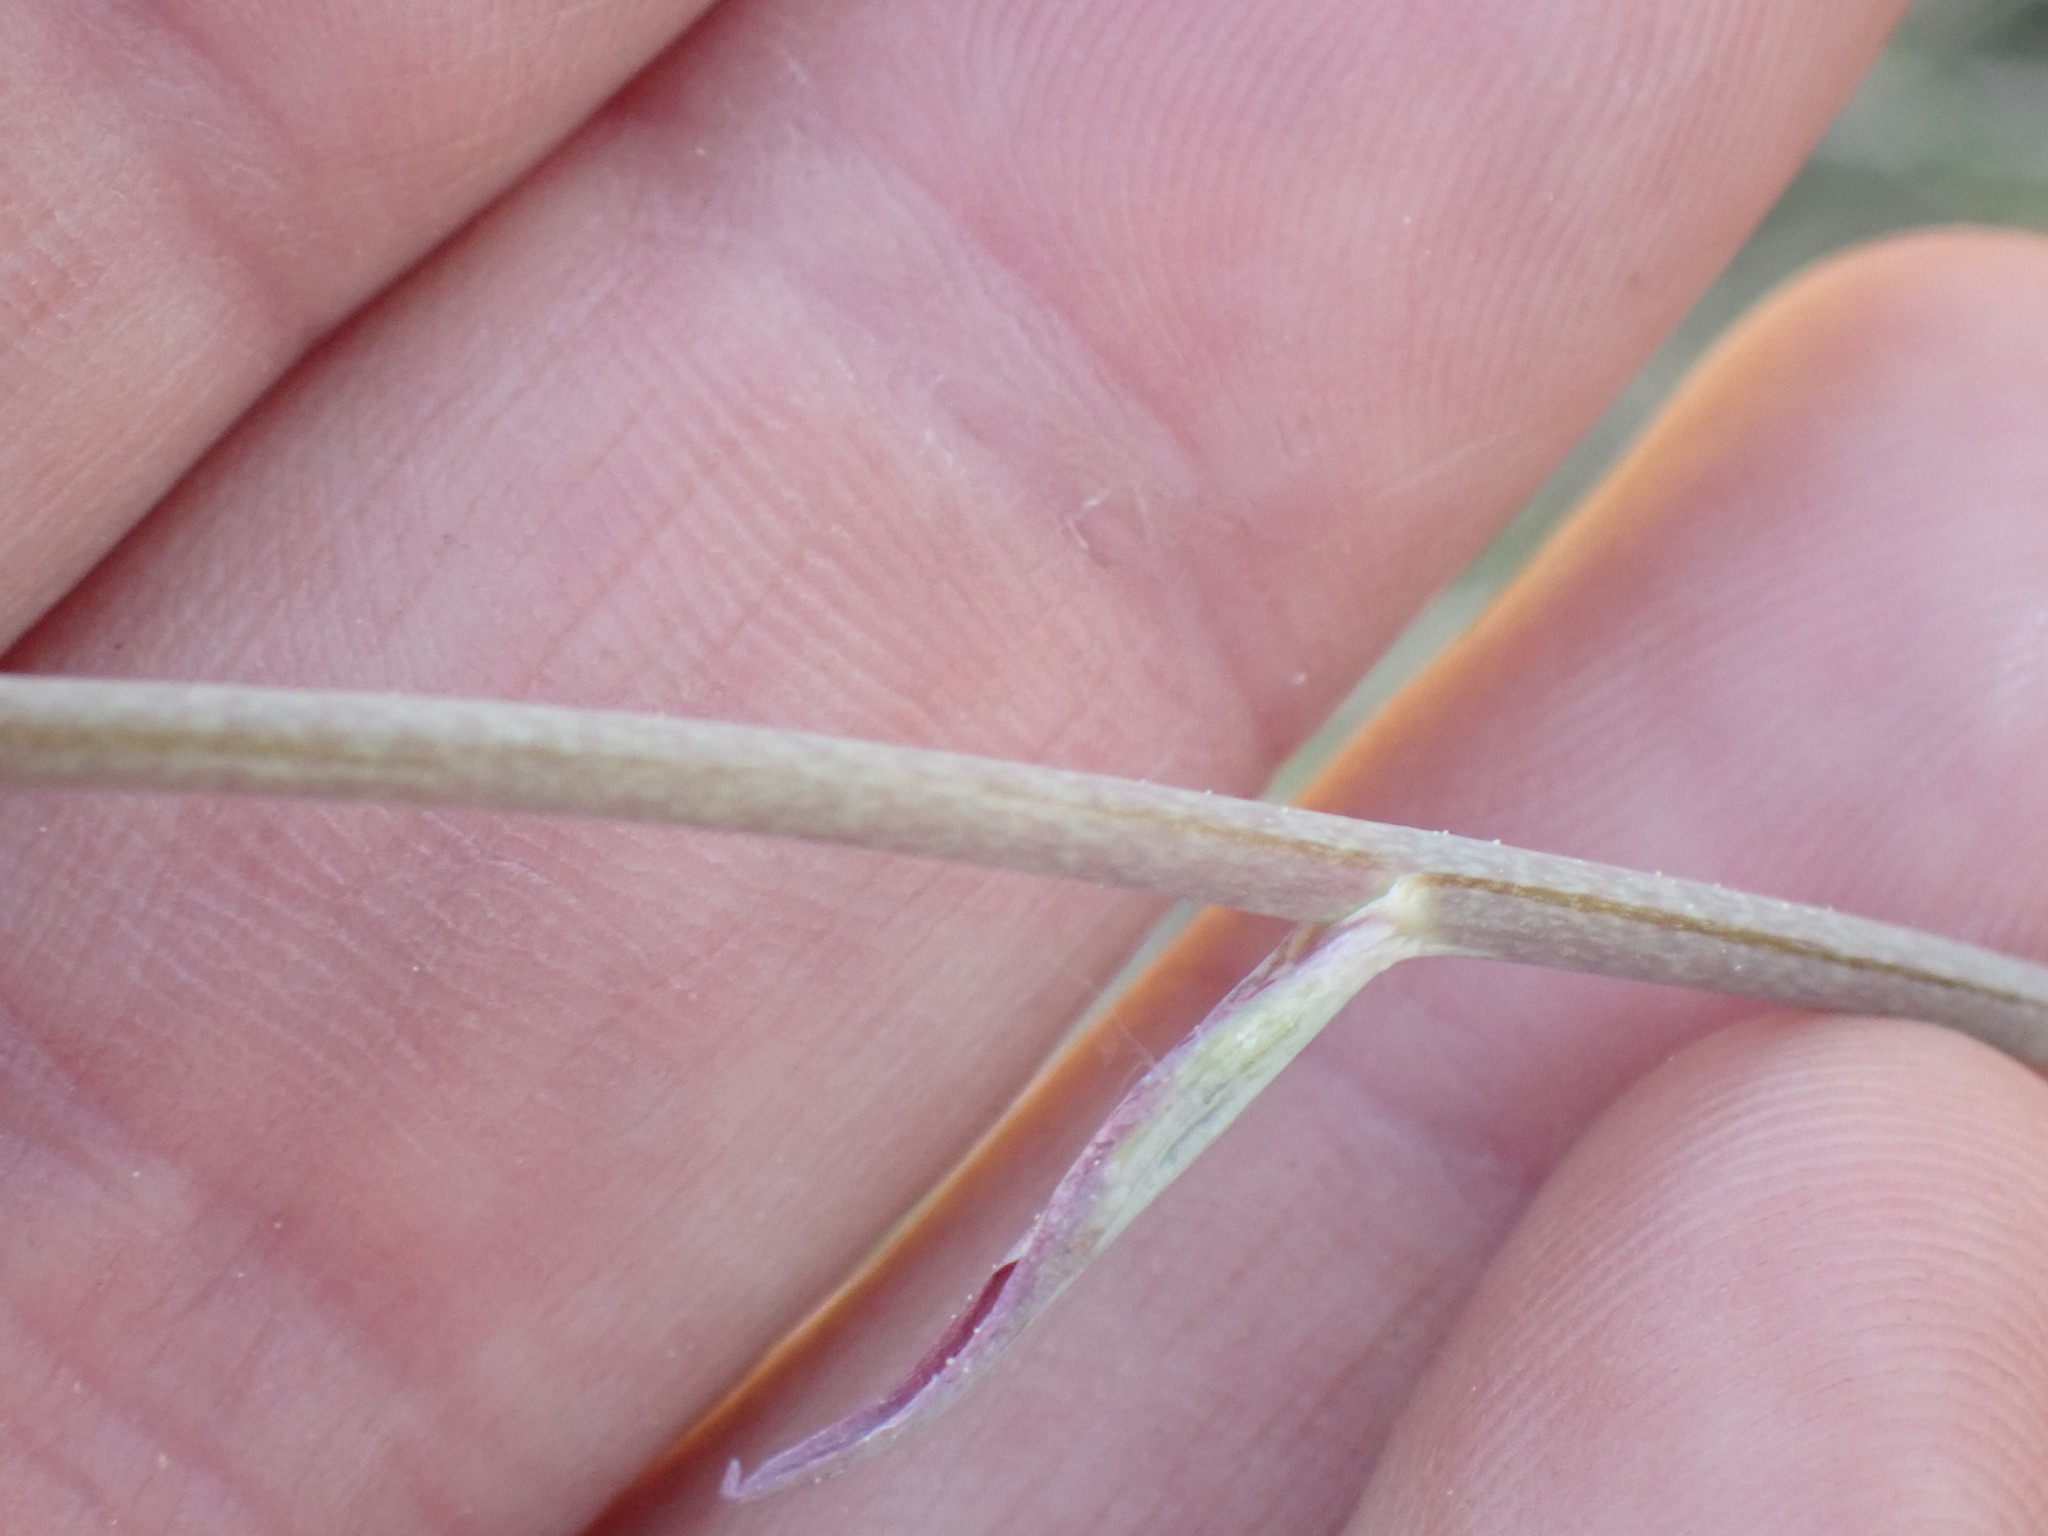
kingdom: Plantae
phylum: Tracheophyta
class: Liliopsida
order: Liliales
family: Melanthiaceae
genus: Anticlea
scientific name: Anticlea elegans
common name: Mountain death camas
